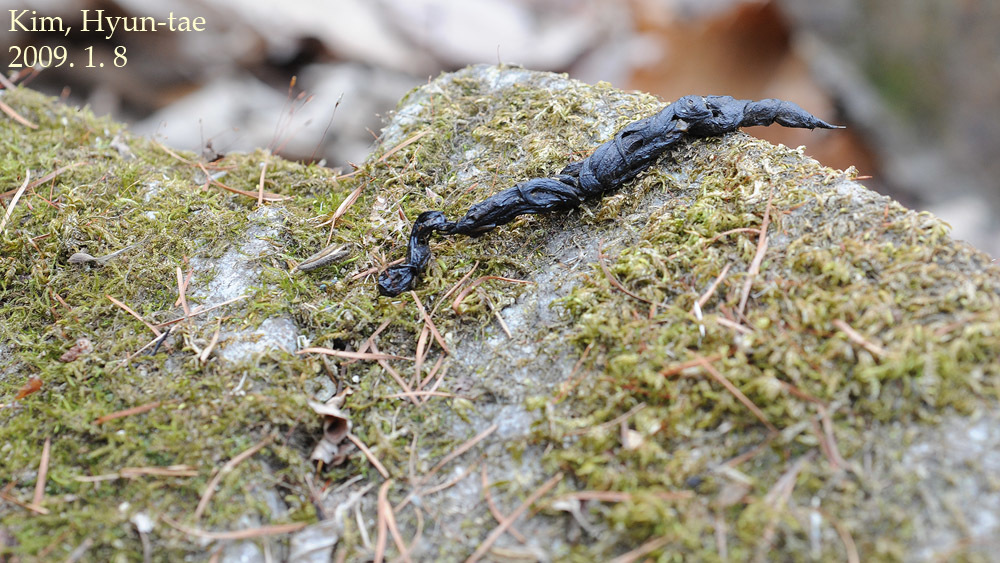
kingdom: Animalia
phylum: Chordata
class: Mammalia
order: Carnivora
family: Mustelidae
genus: Mustela
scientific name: Mustela sibirica
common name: Siberian weasel
